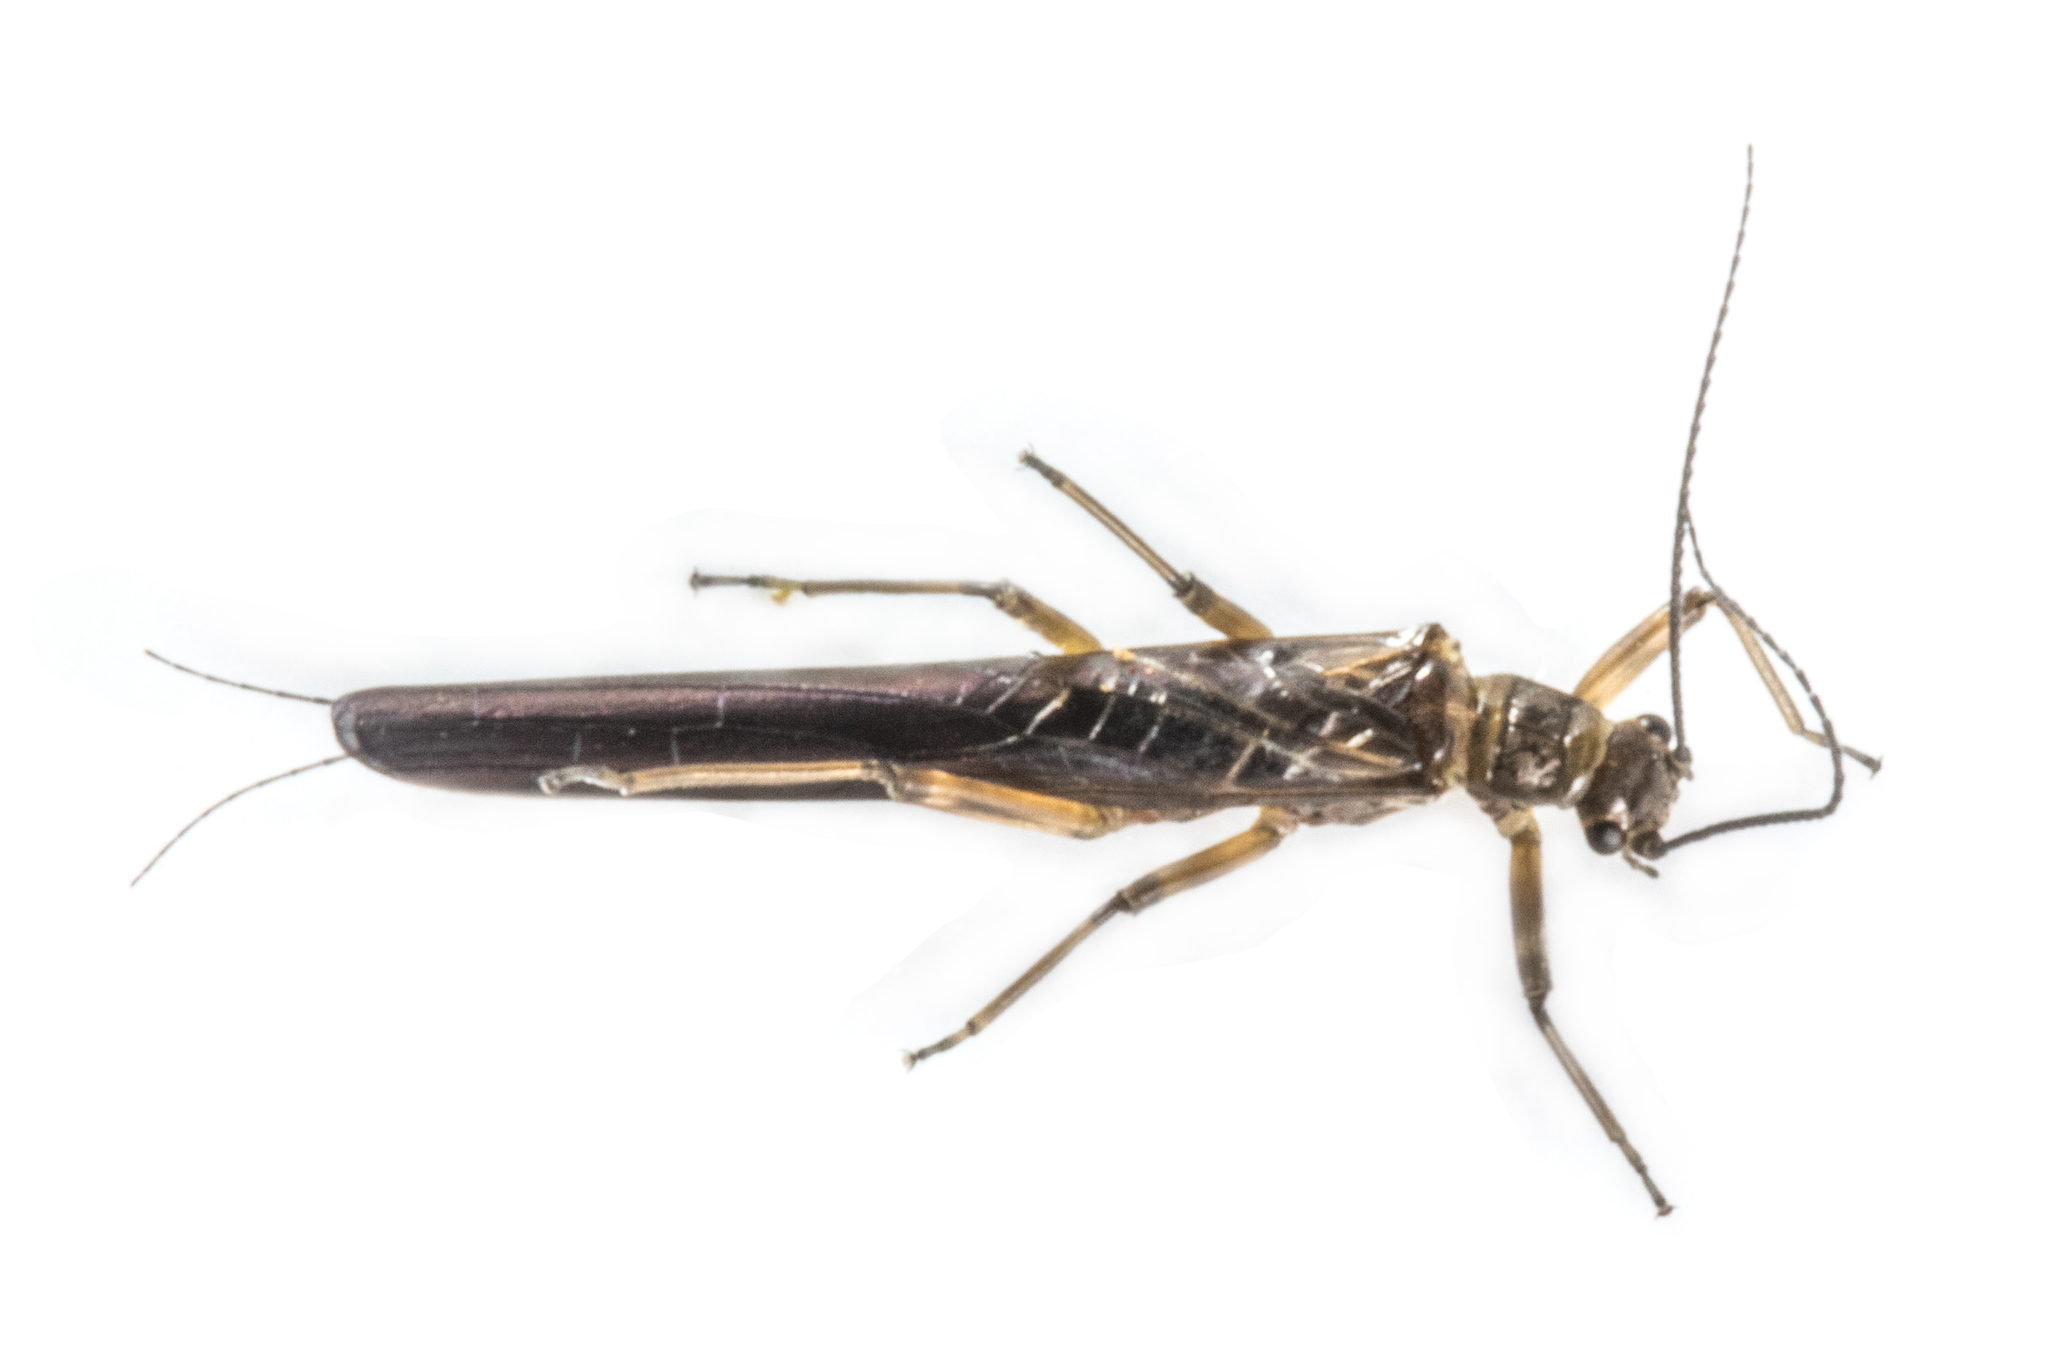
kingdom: Animalia
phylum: Arthropoda
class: Insecta
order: Plecoptera
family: Gripopterygidae
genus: Acroperla
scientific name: Acroperla trivacuata
